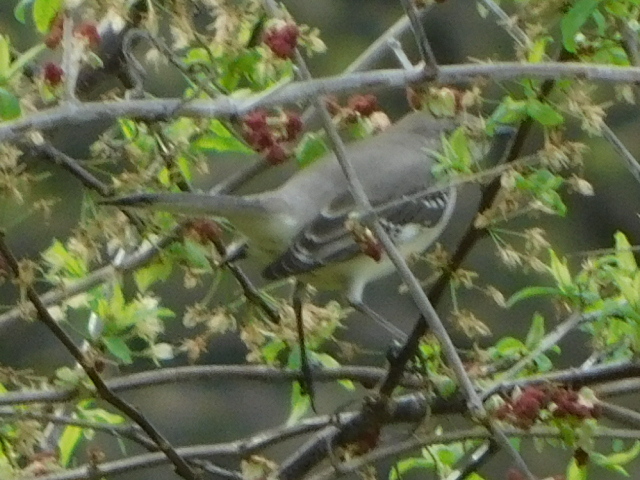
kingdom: Animalia
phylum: Chordata
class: Aves
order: Passeriformes
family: Mimidae
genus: Mimus
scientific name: Mimus polyglottos
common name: Northern mockingbird
